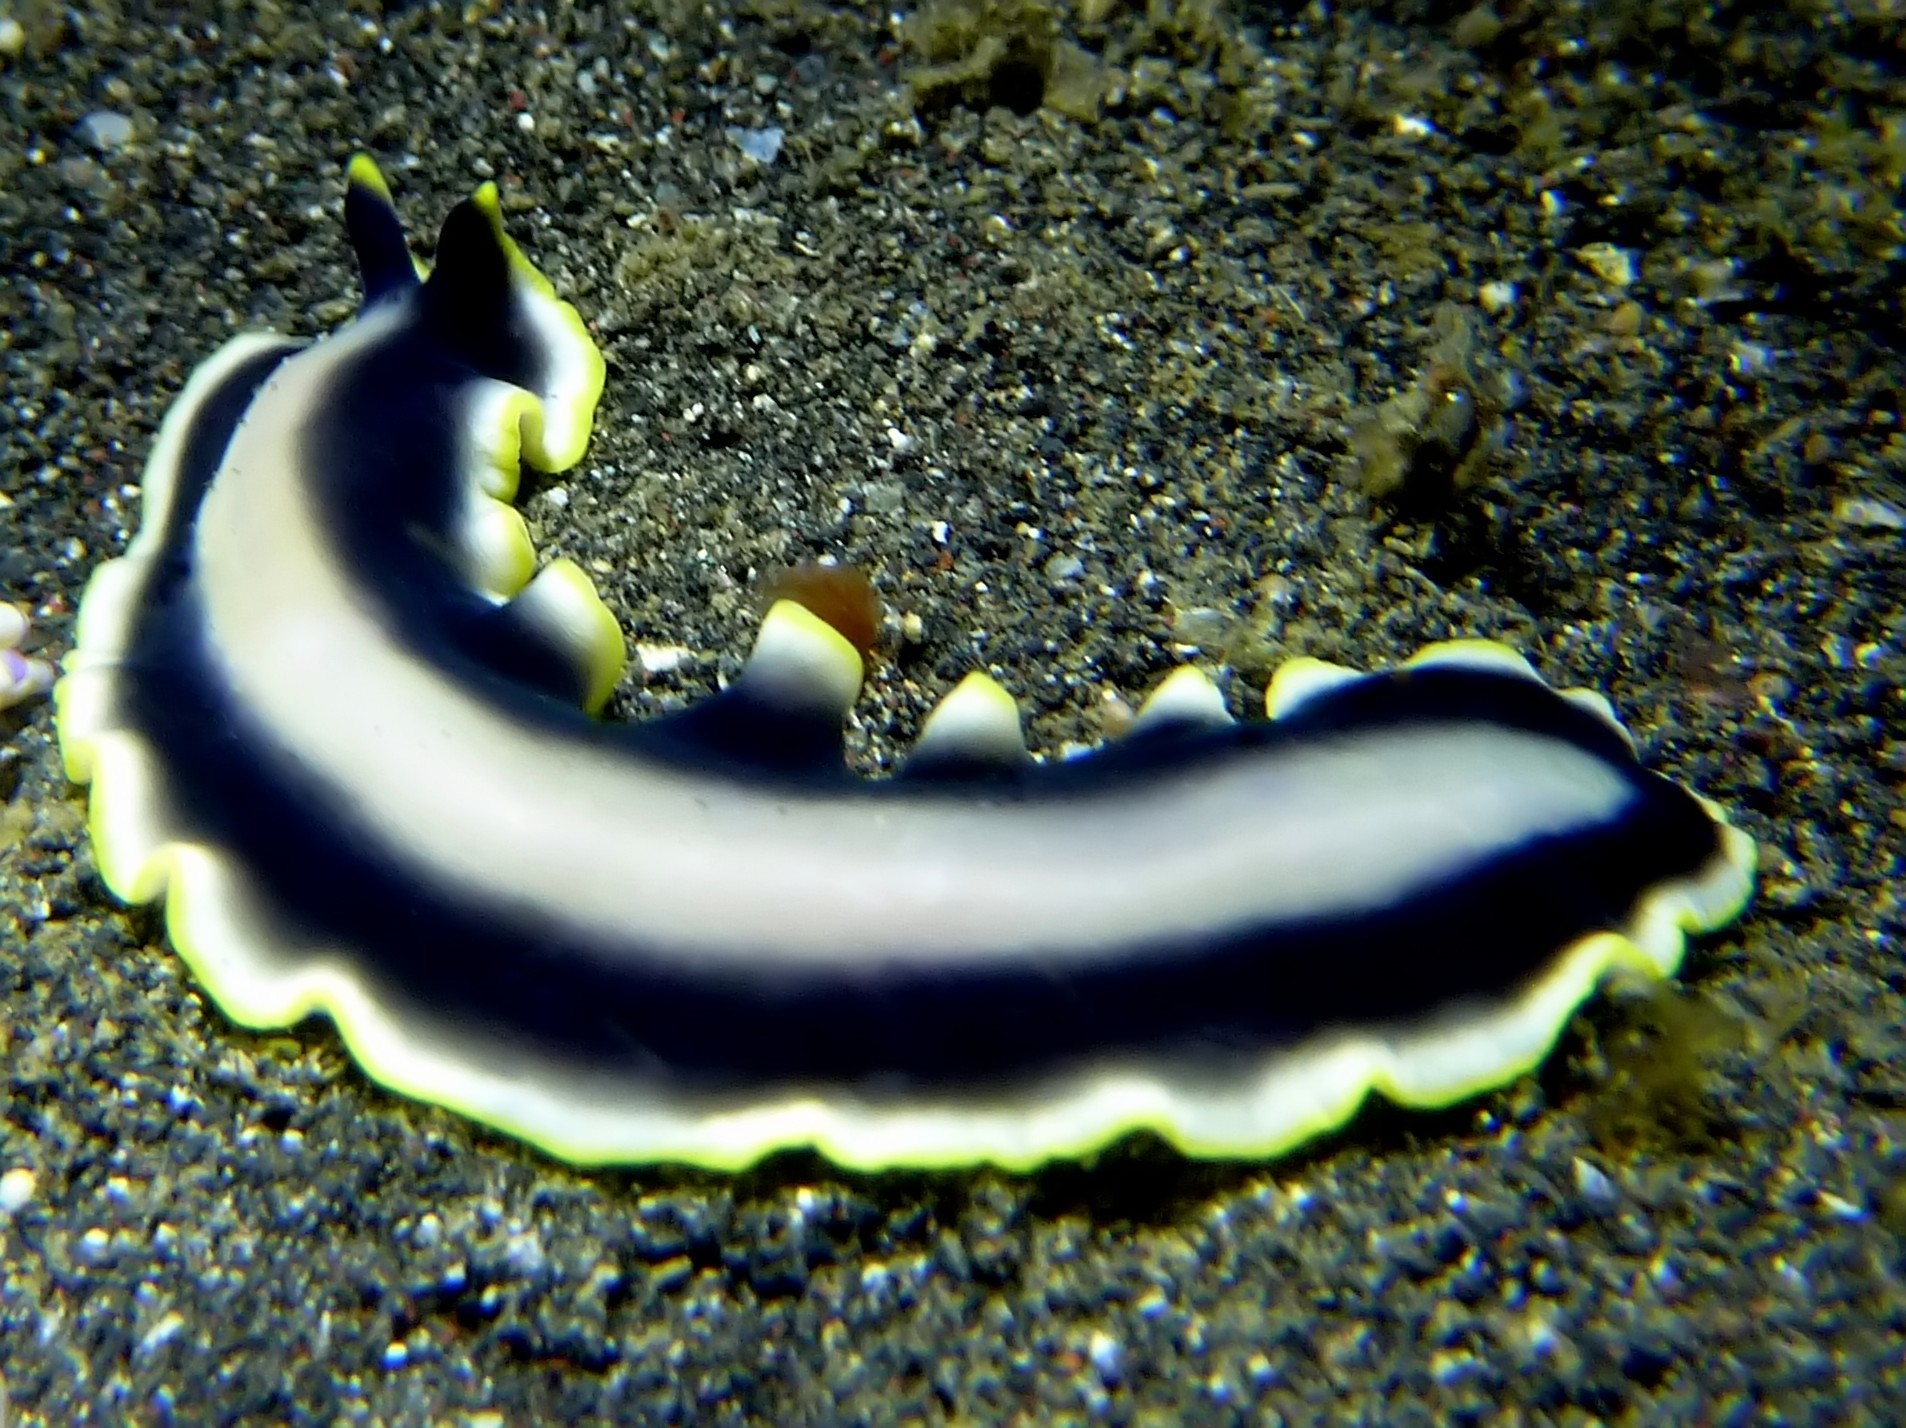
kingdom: Animalia
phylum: Platyhelminthes
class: Turbellaria
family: Pseudocerotidae
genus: Pseudoceros
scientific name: Pseudoceros paralaticlavus
